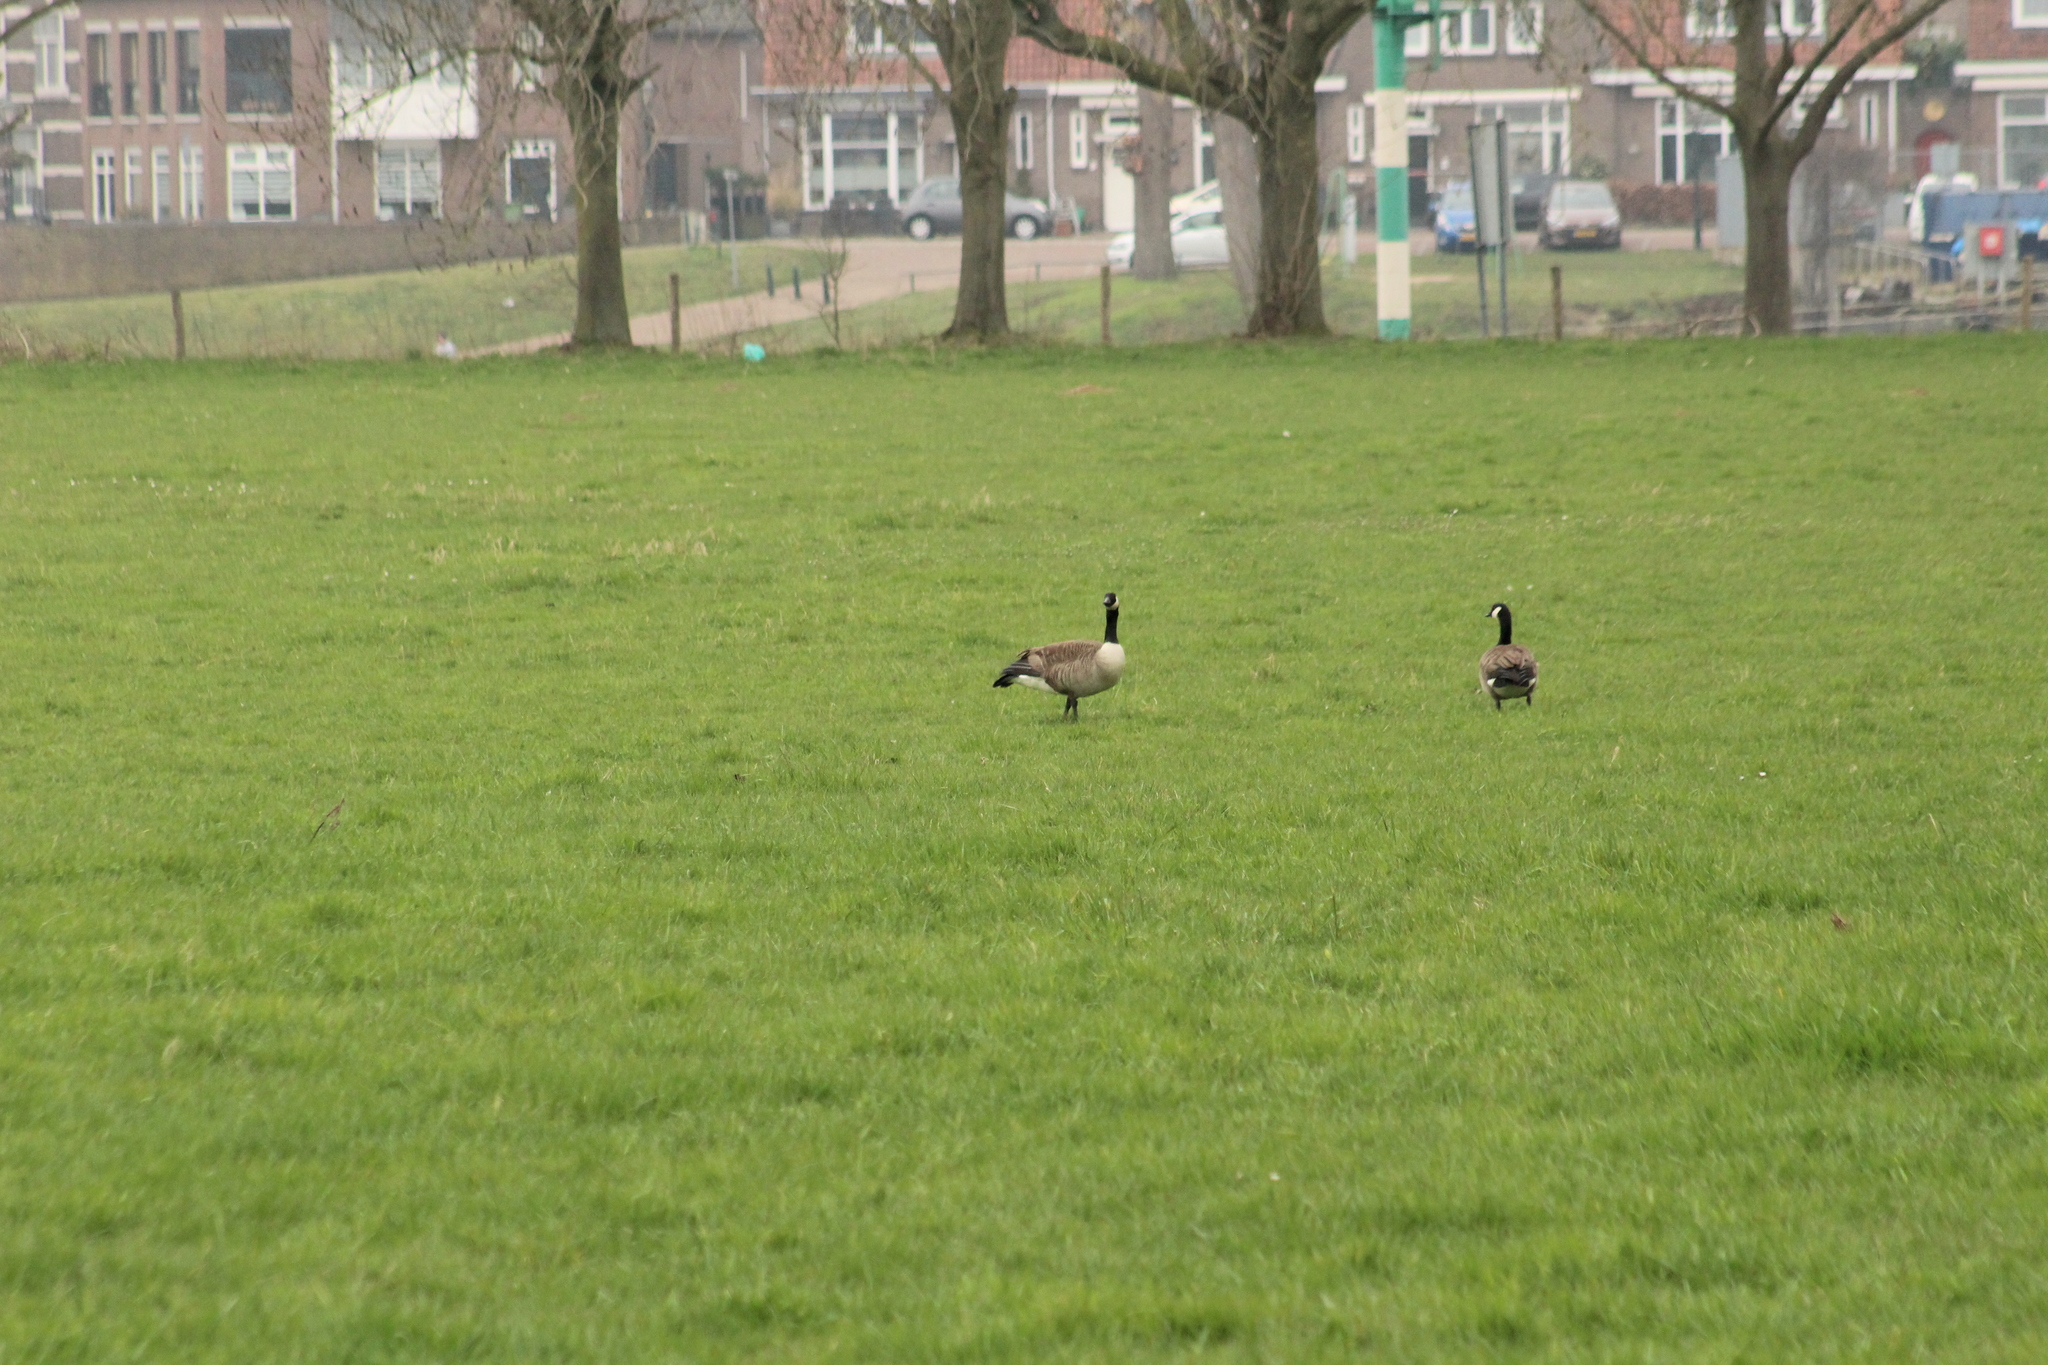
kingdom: Animalia
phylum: Chordata
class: Aves
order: Anseriformes
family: Anatidae
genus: Branta
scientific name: Branta canadensis
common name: Canada goose
